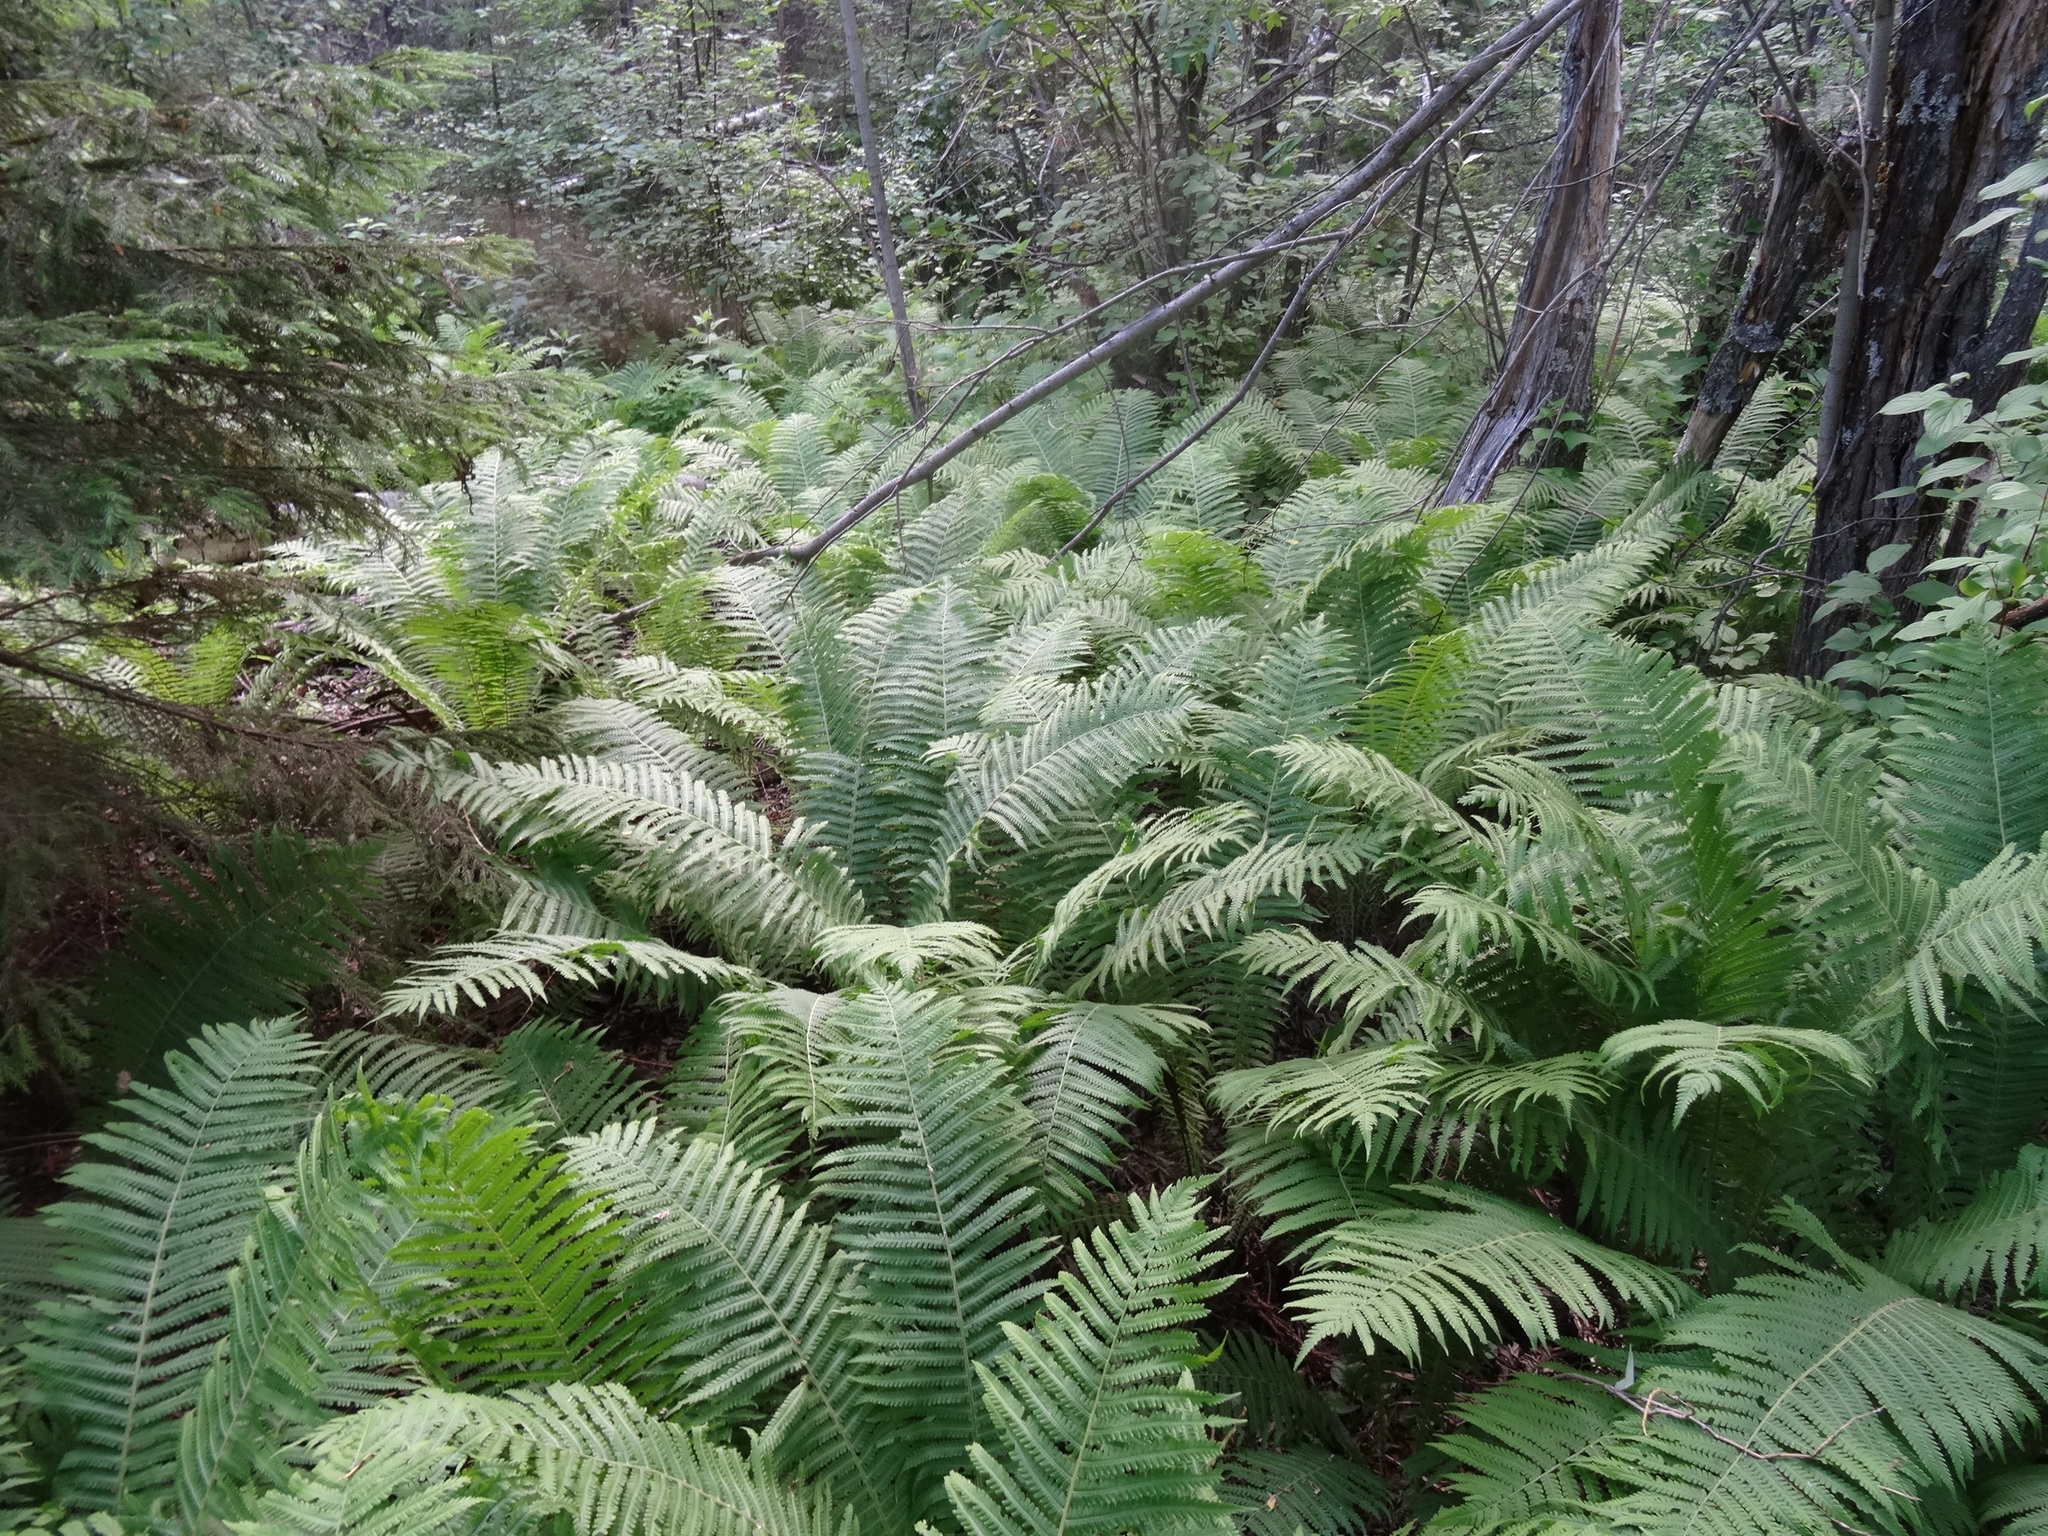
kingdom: Plantae
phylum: Tracheophyta
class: Polypodiopsida
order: Polypodiales
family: Onocleaceae
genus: Matteuccia
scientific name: Matteuccia struthiopteris
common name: Ostrich fern
